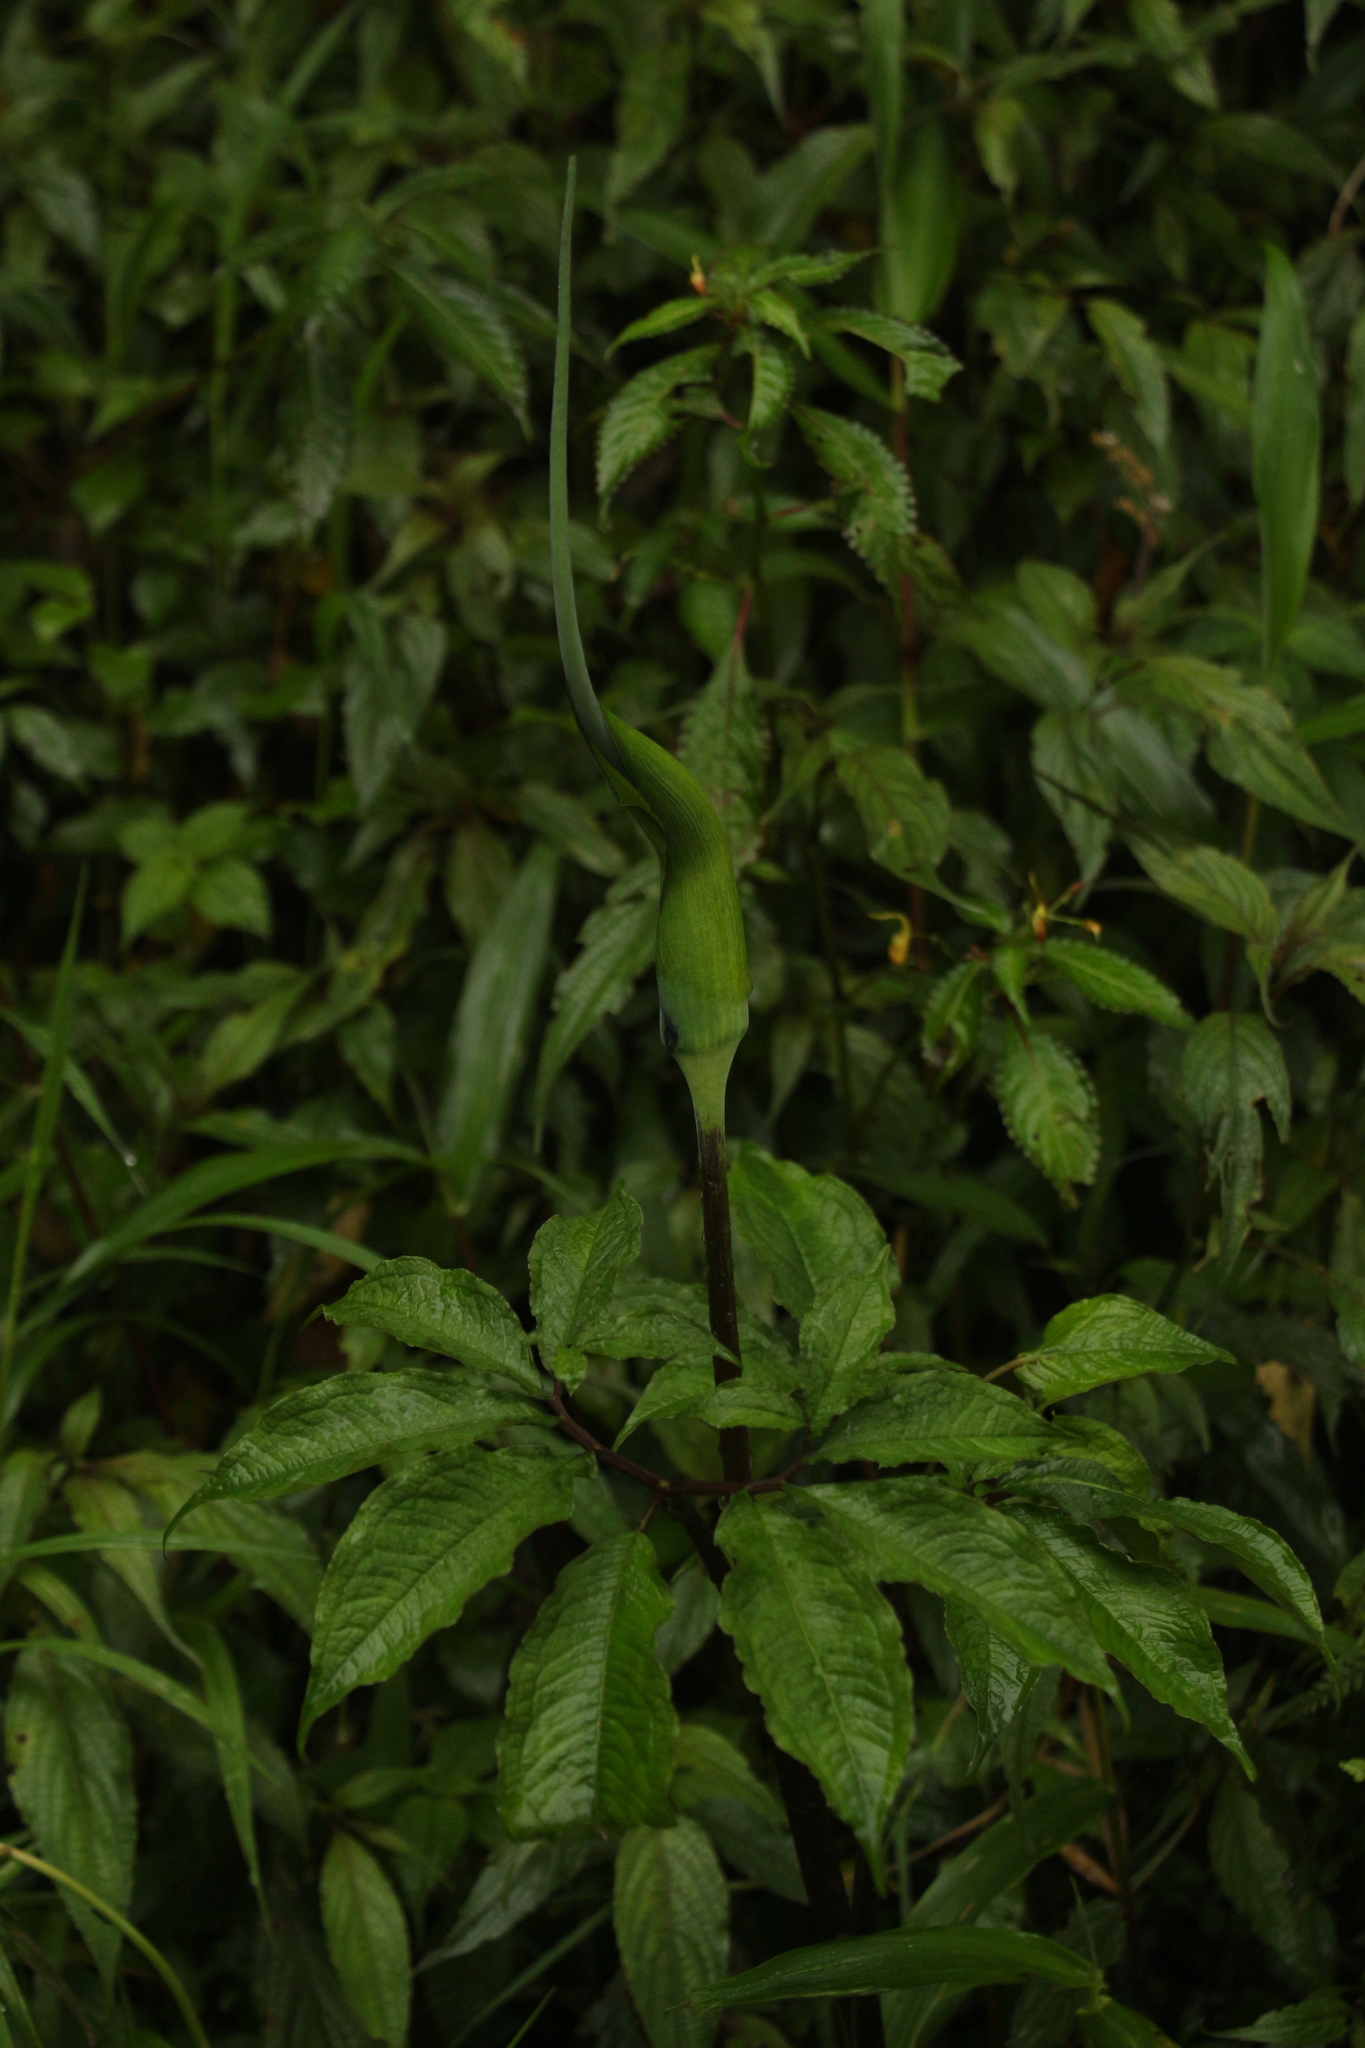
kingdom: Plantae
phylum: Tracheophyta
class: Liliopsida
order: Alismatales
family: Araceae
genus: Arisaema
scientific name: Arisaema tortuosum
